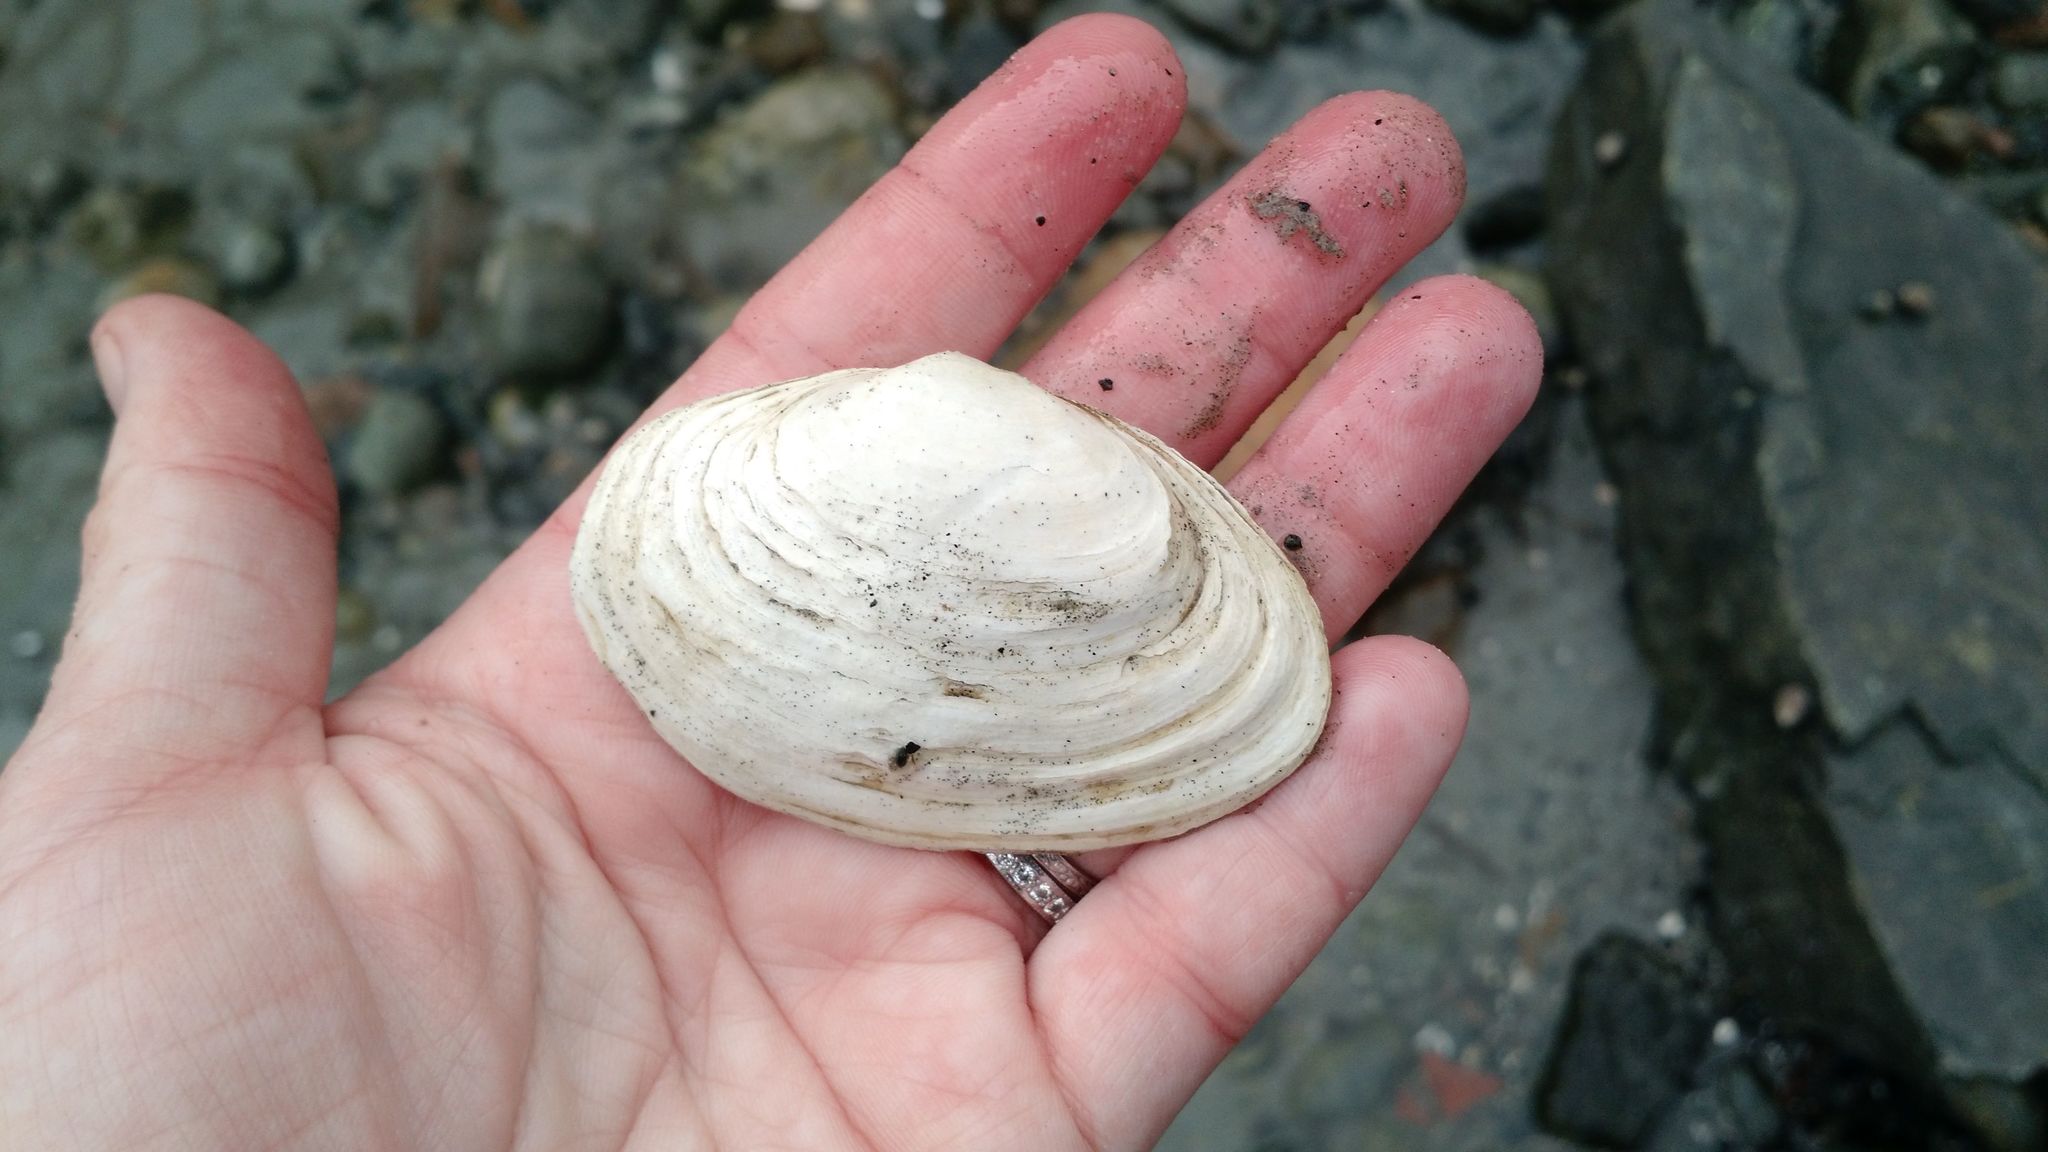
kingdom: Animalia
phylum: Mollusca
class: Bivalvia
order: Myida
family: Myidae
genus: Mya
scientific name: Mya arenaria
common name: Soft-shelled clam
